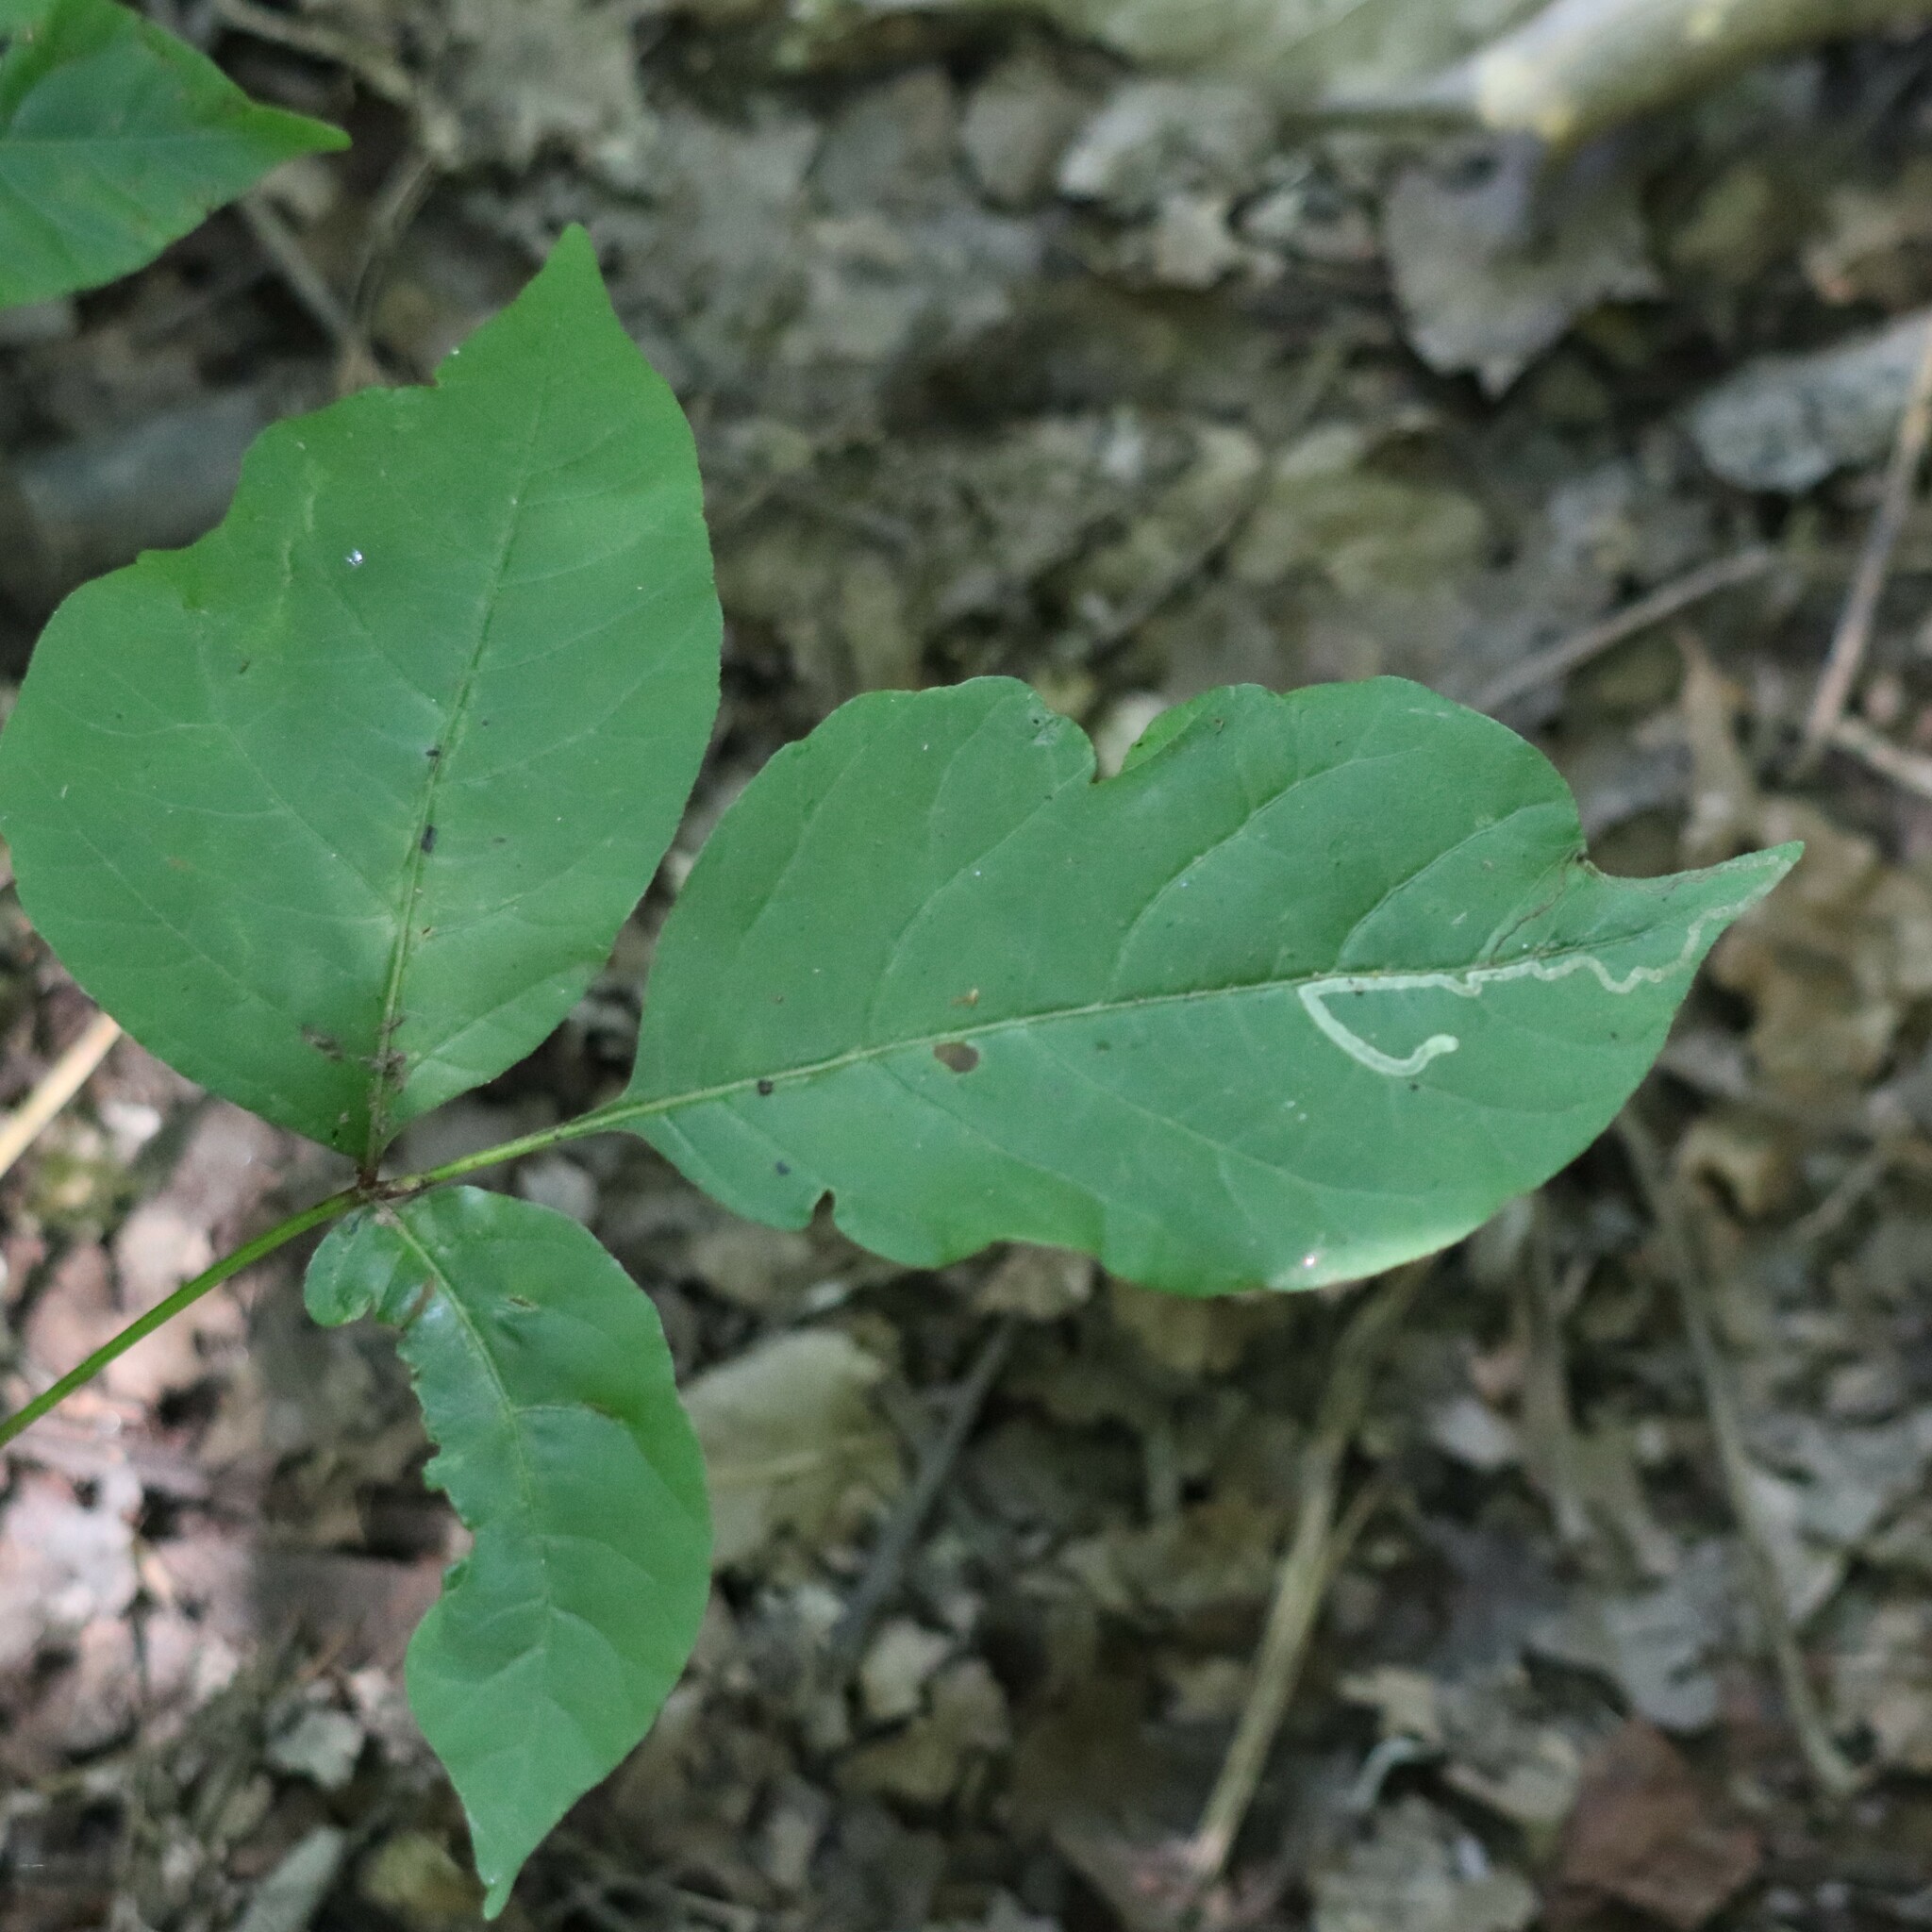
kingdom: Animalia
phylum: Arthropoda
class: Insecta
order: Lepidoptera
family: Nepticulidae
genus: Stigmella
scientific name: Stigmella rhoifoliella
